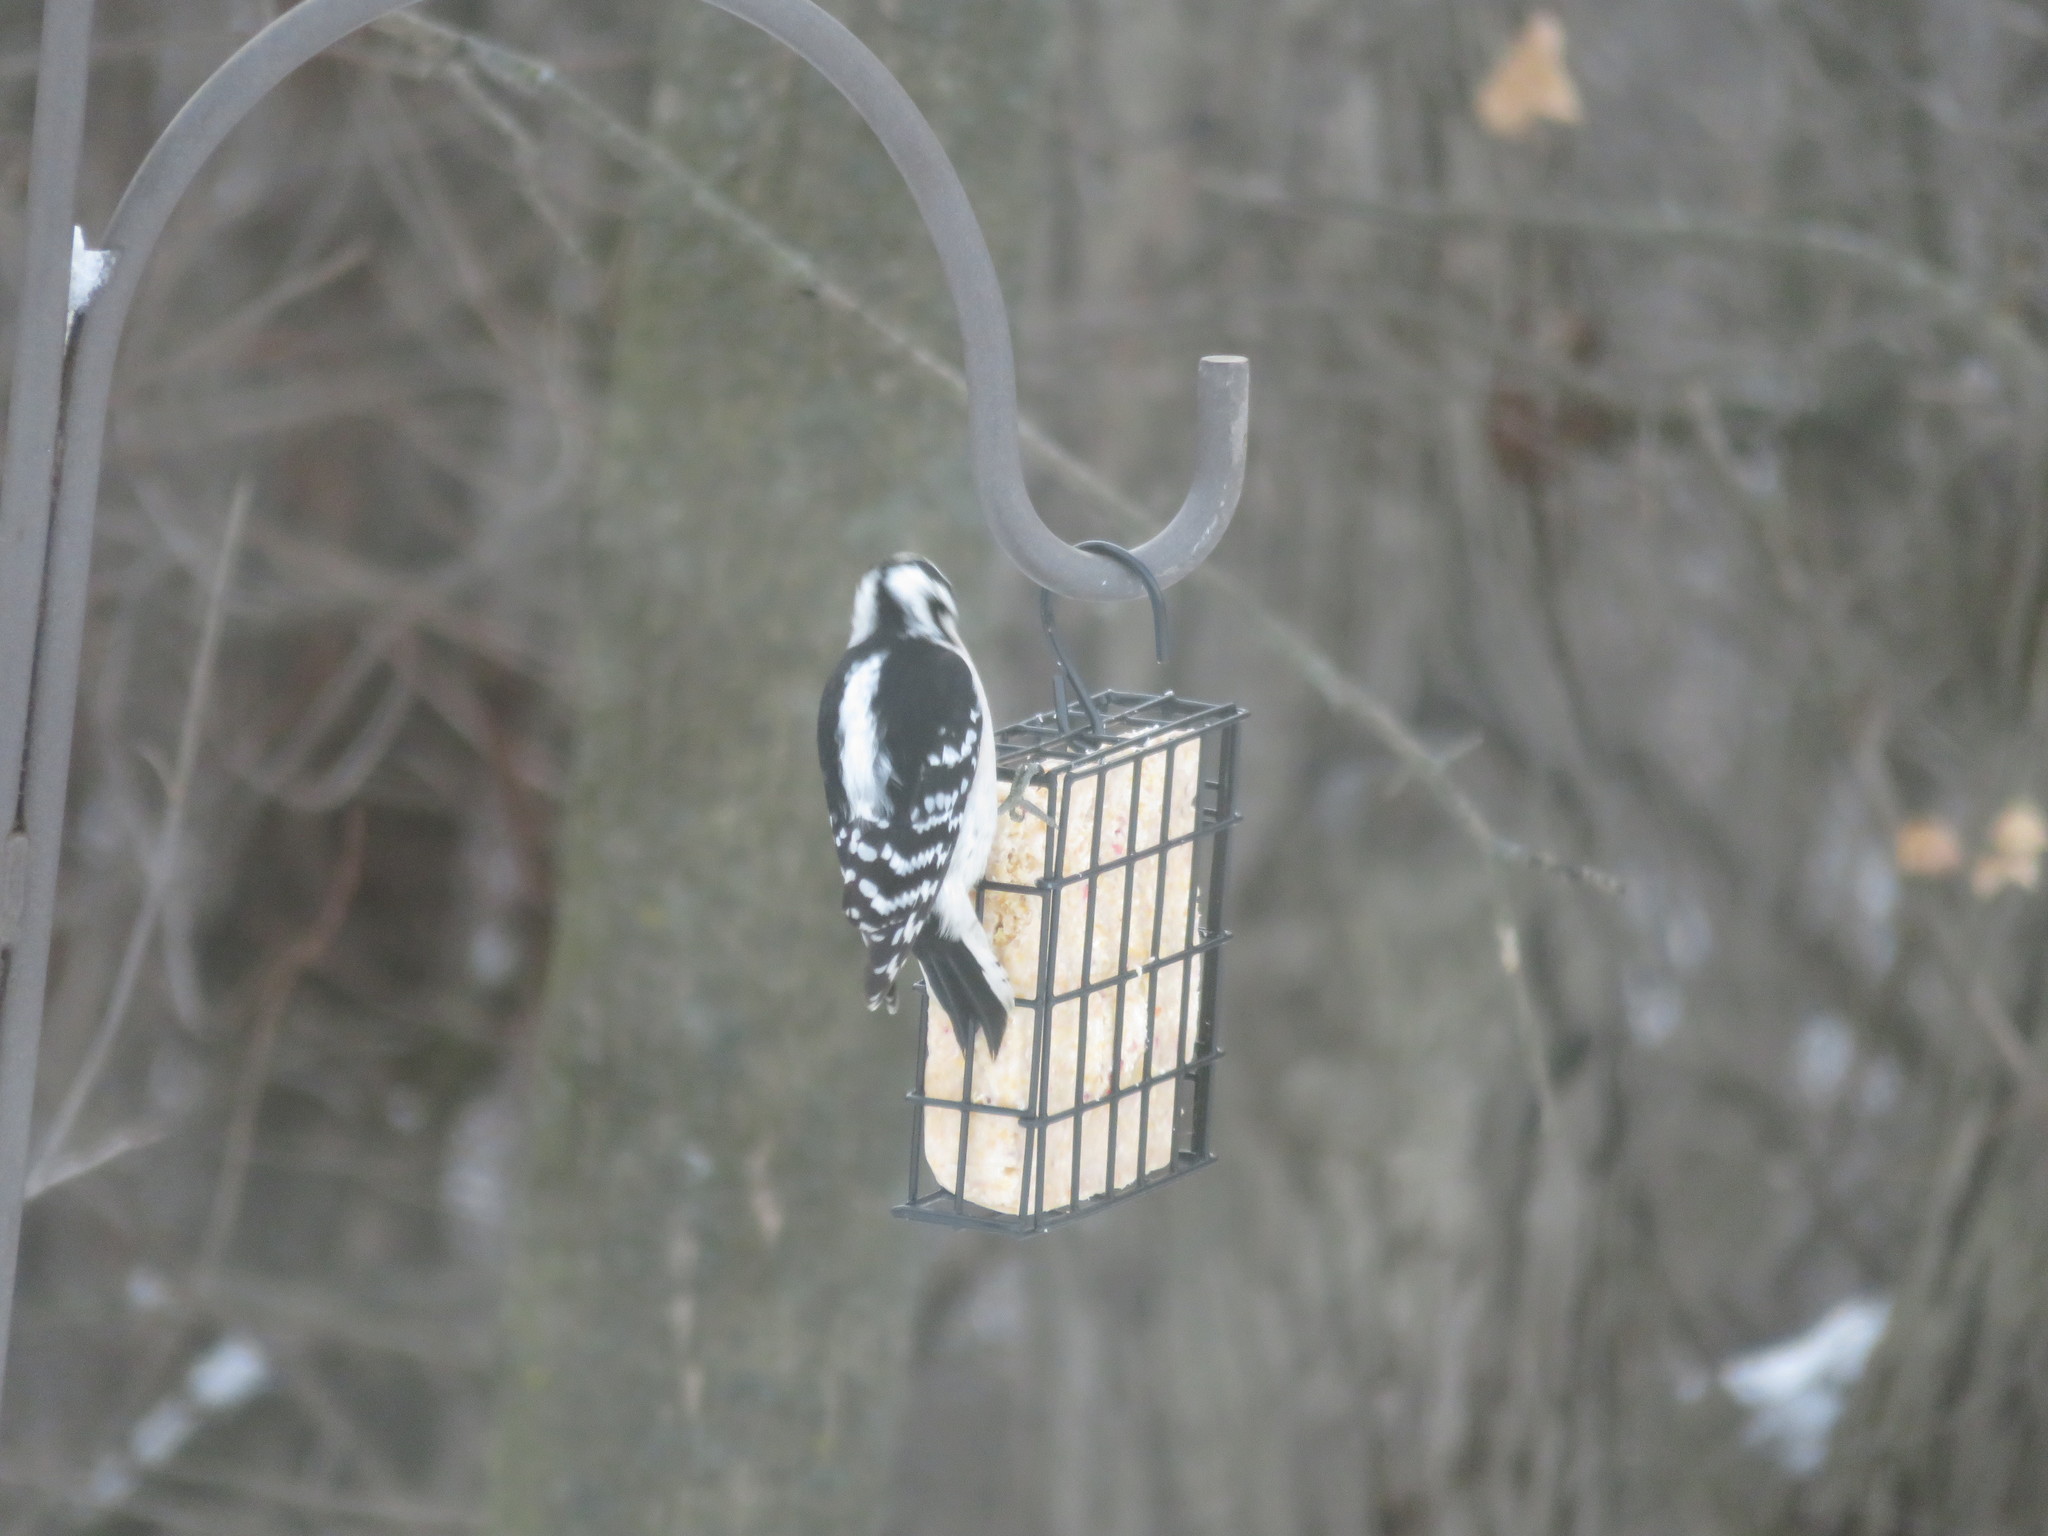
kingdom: Animalia
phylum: Chordata
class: Aves
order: Piciformes
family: Picidae
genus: Dryobates
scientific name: Dryobates pubescens
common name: Downy woodpecker
